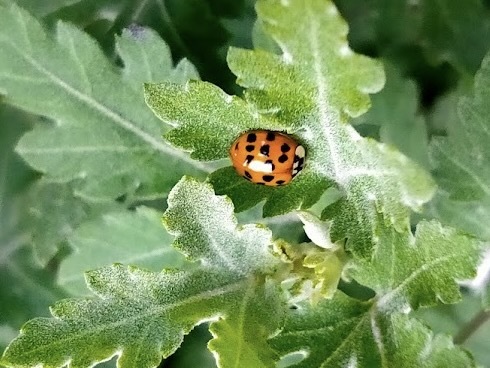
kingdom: Animalia
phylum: Arthropoda
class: Insecta
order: Coleoptera
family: Coccinellidae
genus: Harmonia
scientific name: Harmonia axyridis
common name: Harlequin ladybird
